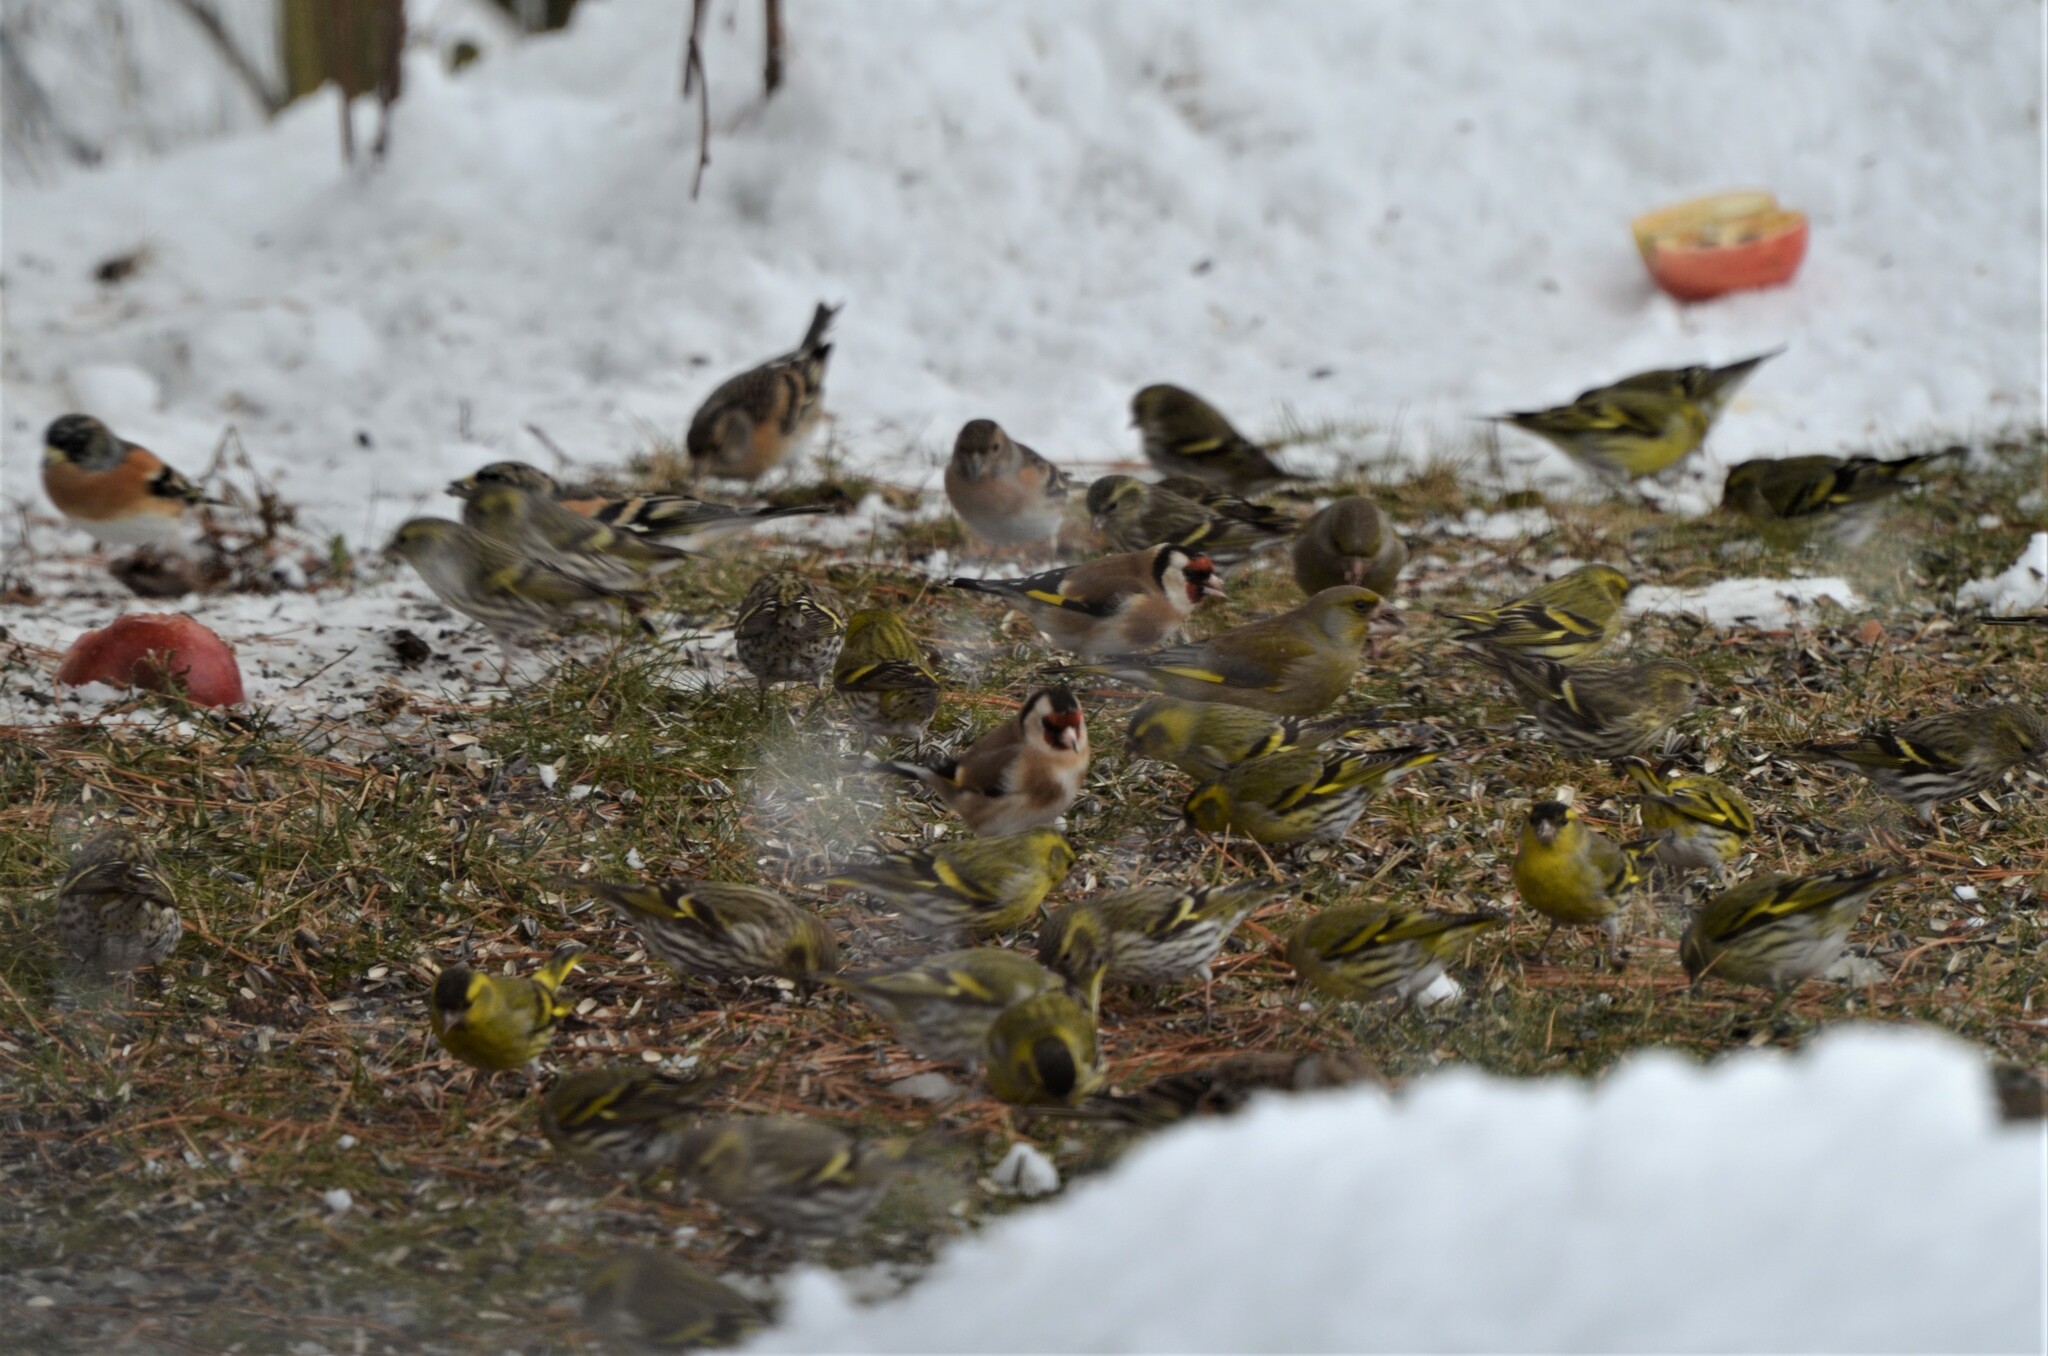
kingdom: Animalia
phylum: Chordata
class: Aves
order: Passeriformes
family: Fringillidae
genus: Spinus
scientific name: Spinus spinus
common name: Eurasian siskin
